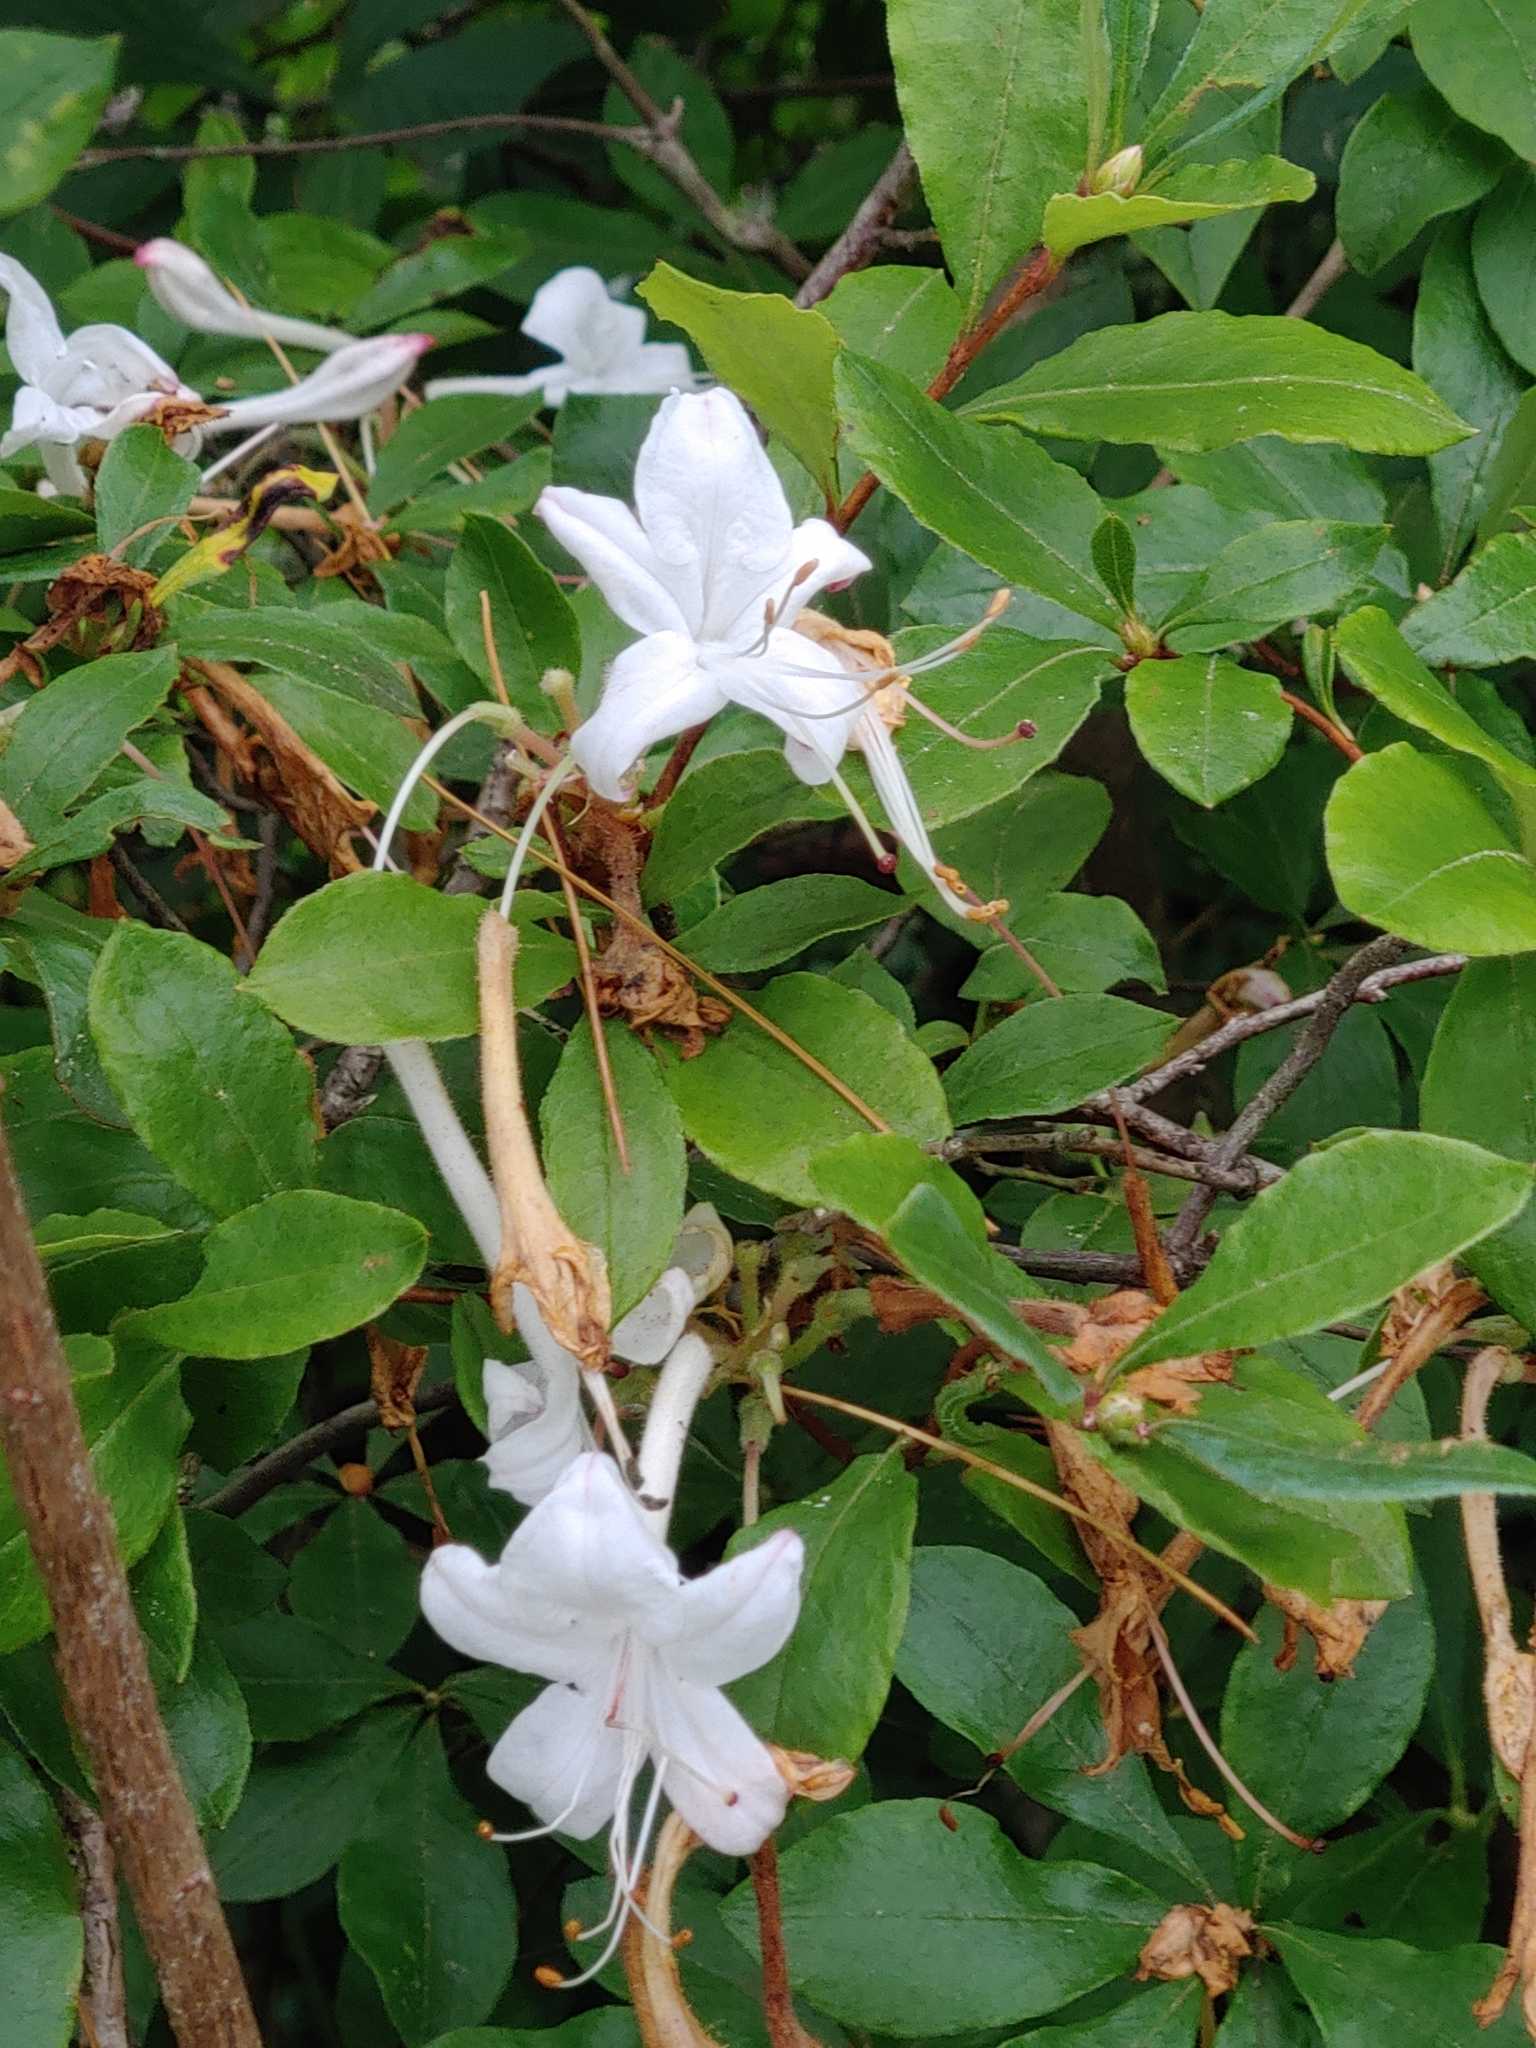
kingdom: Plantae
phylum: Tracheophyta
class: Magnoliopsida
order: Ericales
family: Ericaceae
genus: Rhododendron
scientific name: Rhododendron viscosum
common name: Clammy azalea
